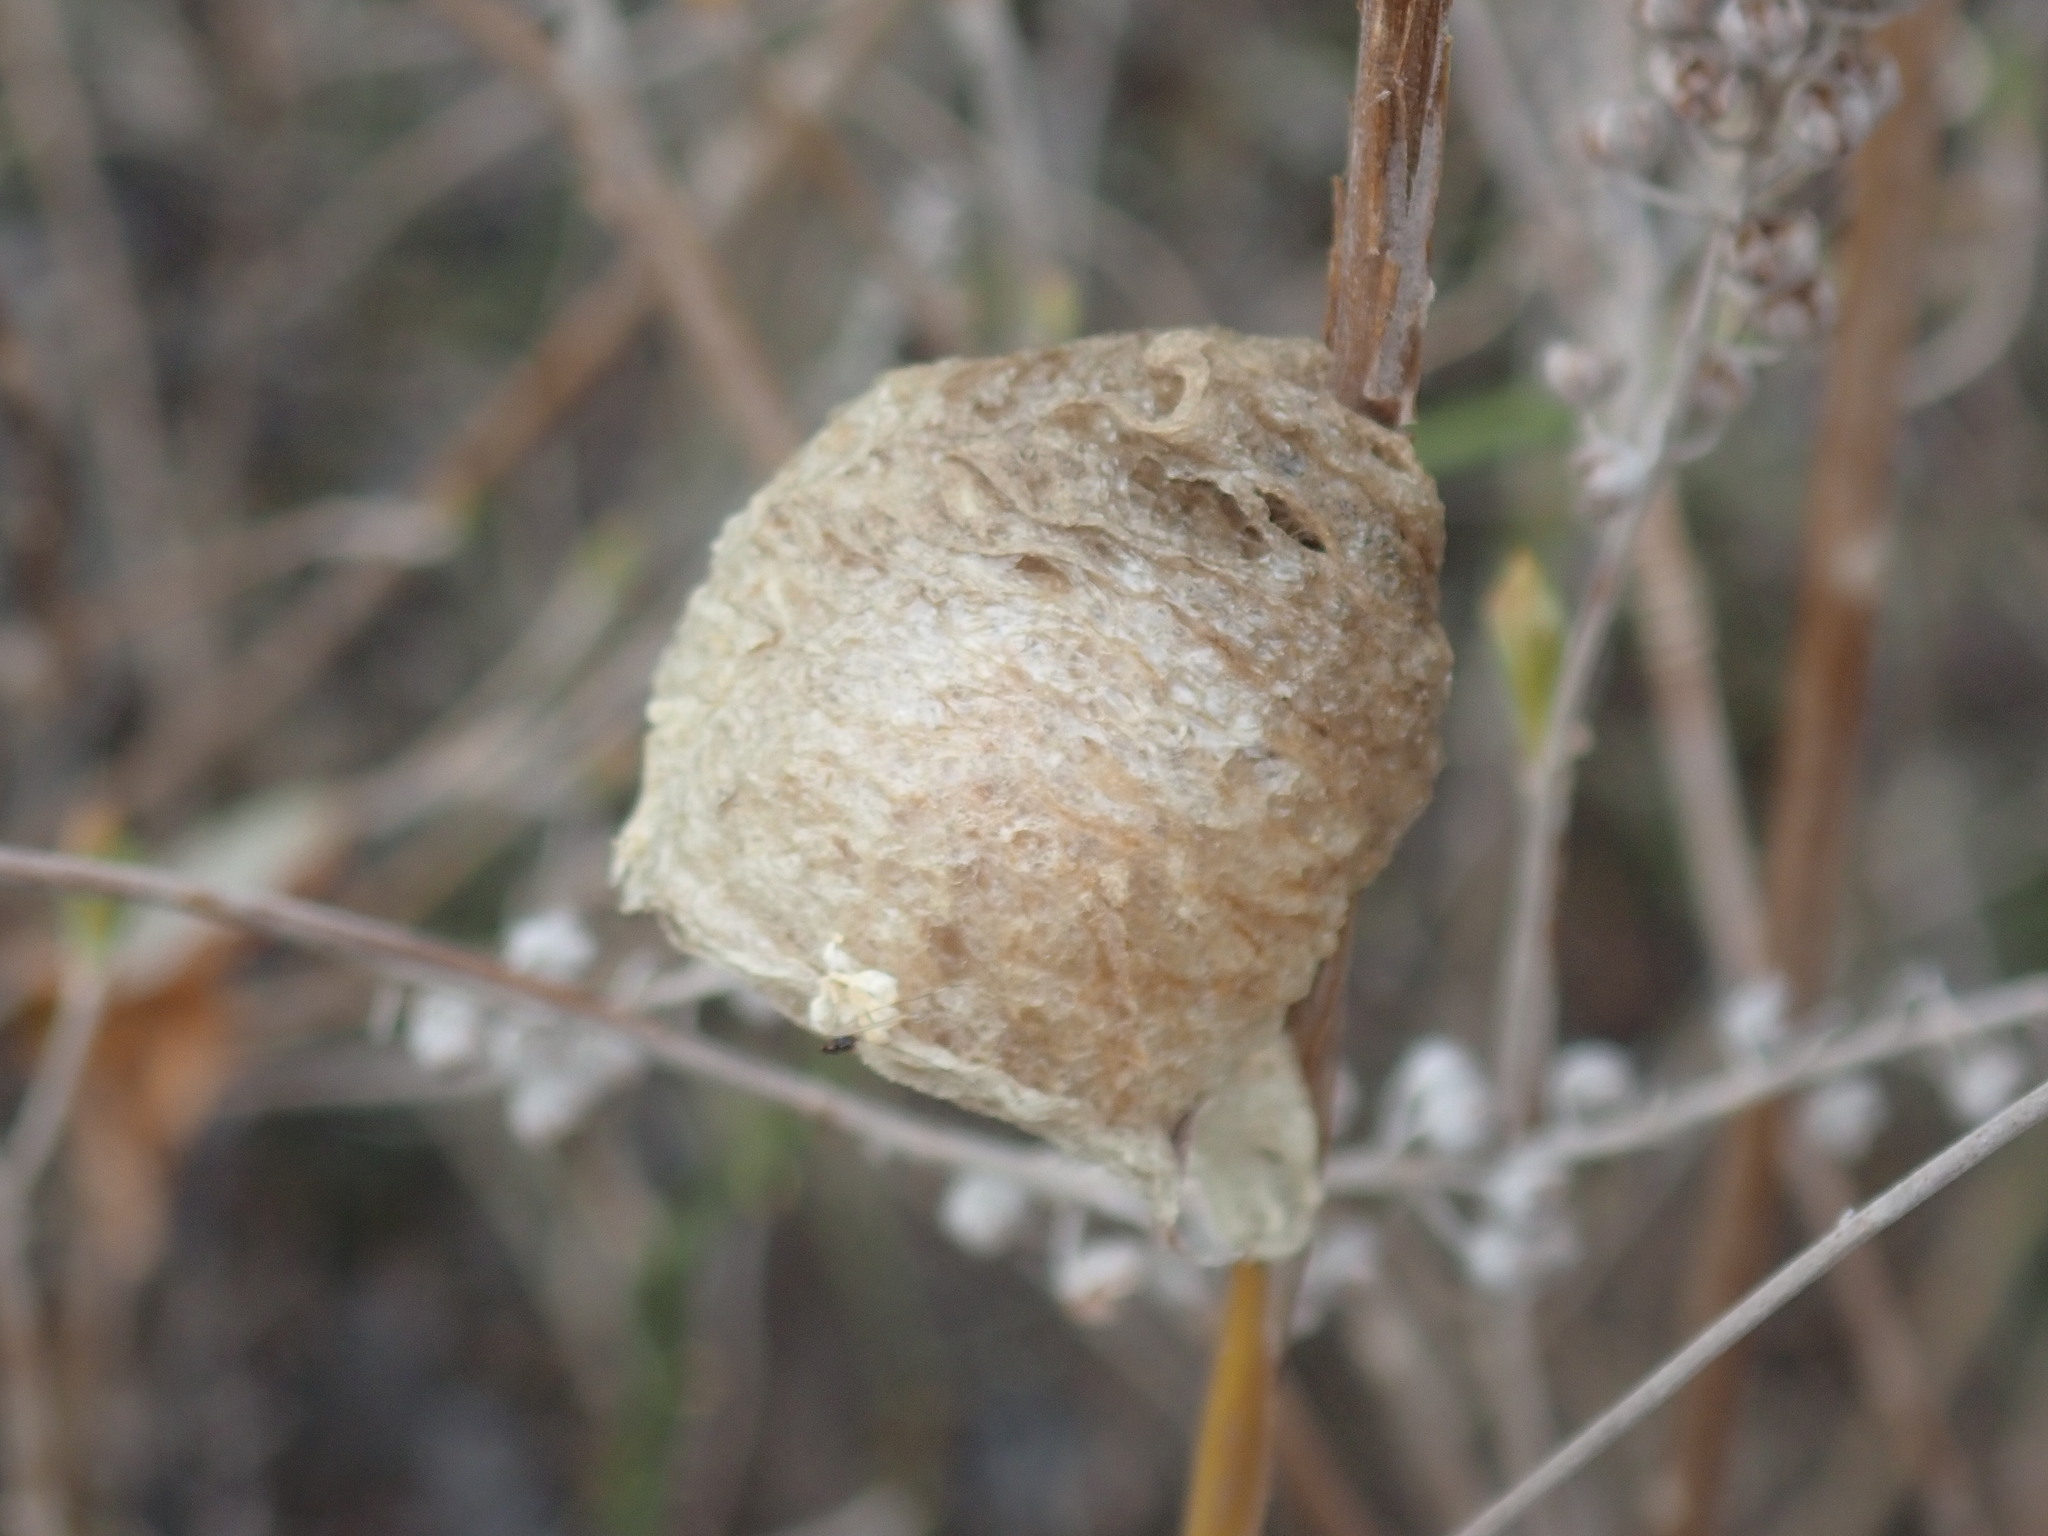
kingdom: Animalia
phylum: Arthropoda
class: Insecta
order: Mantodea
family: Mantidae
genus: Tenodera
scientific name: Tenodera sinensis
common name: Chinese mantis
